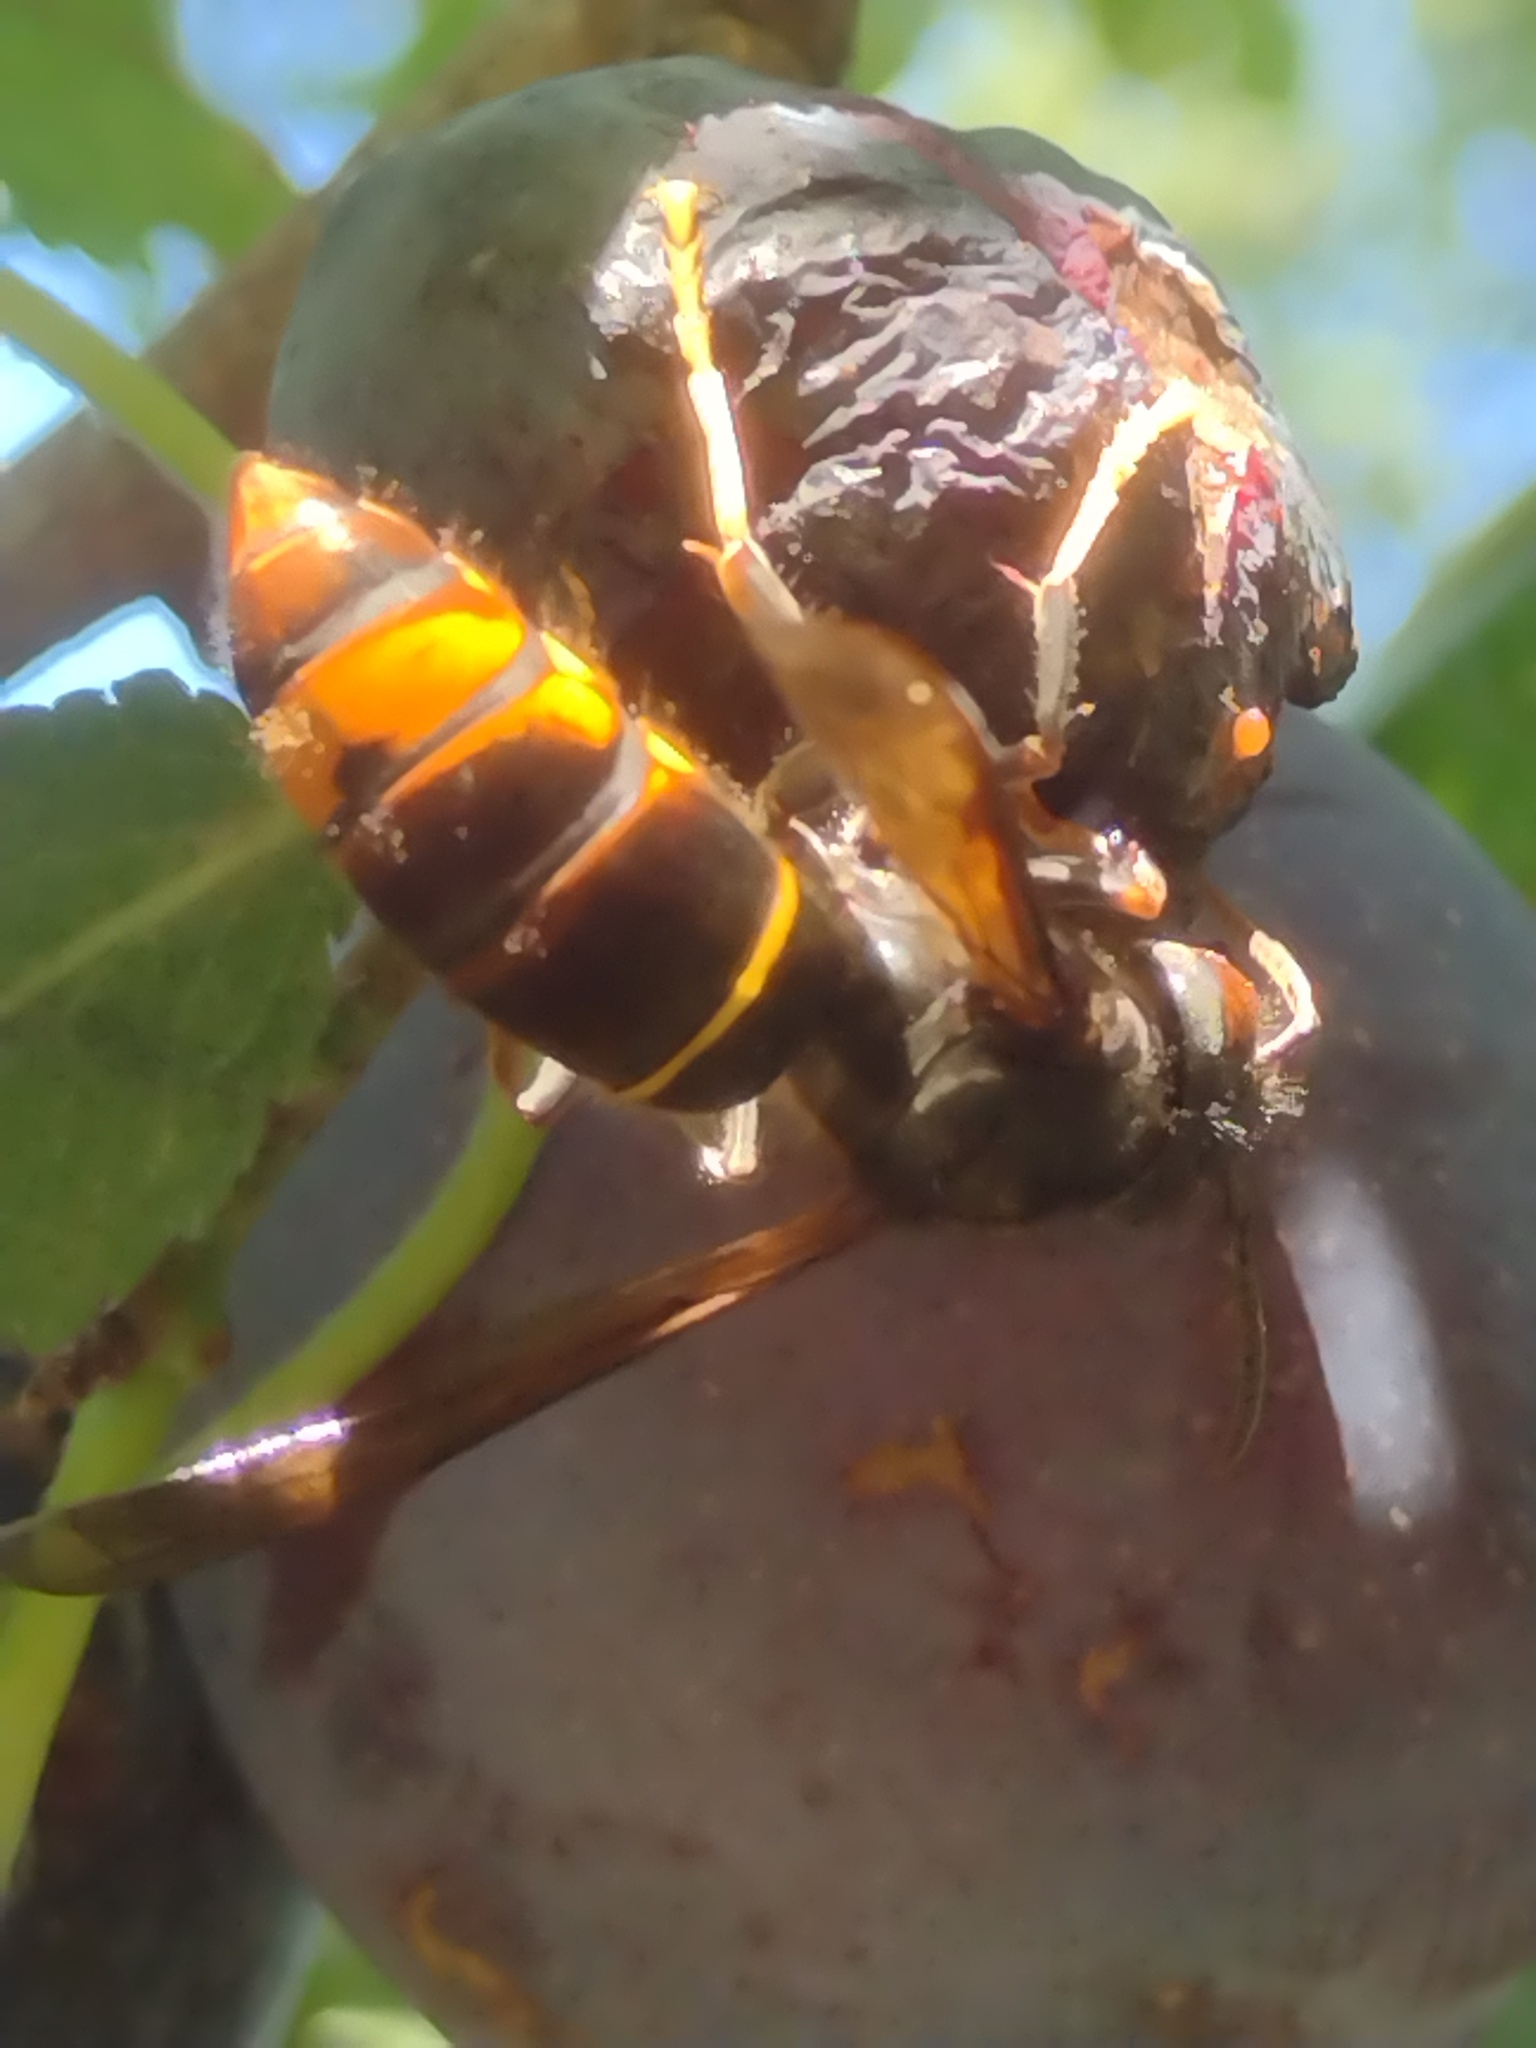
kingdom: Animalia
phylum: Arthropoda
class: Insecta
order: Hymenoptera
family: Vespidae
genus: Vespa
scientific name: Vespa velutina
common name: Asian hornet
